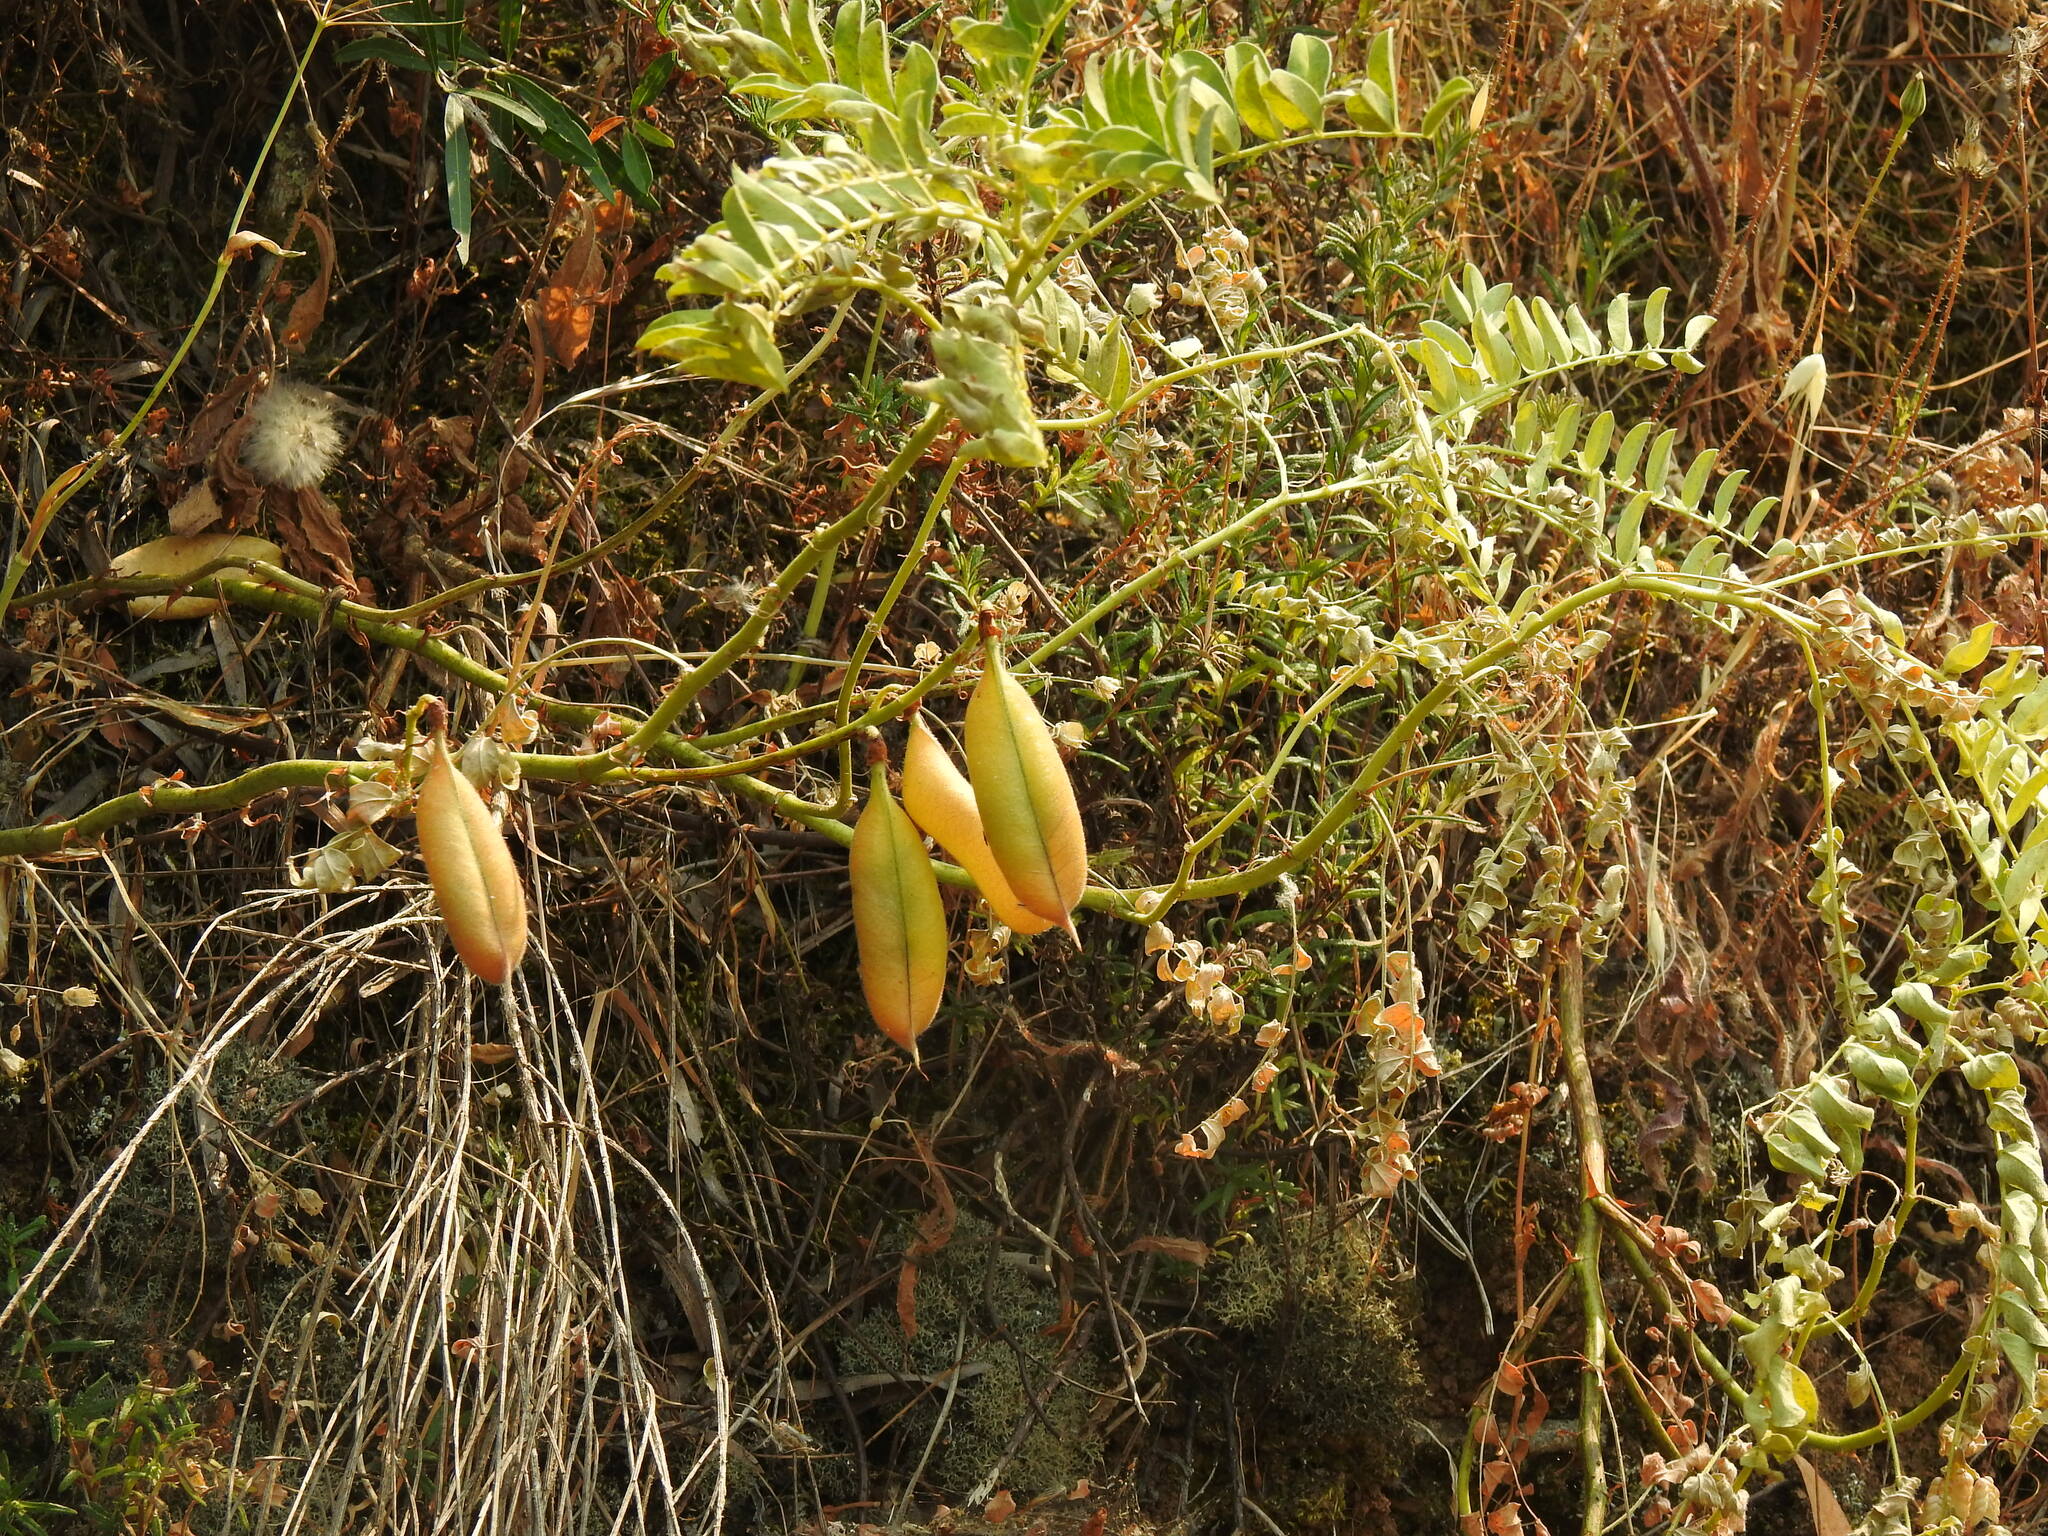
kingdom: Plantae
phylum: Tracheophyta
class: Magnoliopsida
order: Fabales
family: Fabaceae
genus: Erophaca
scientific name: Erophaca baetica
